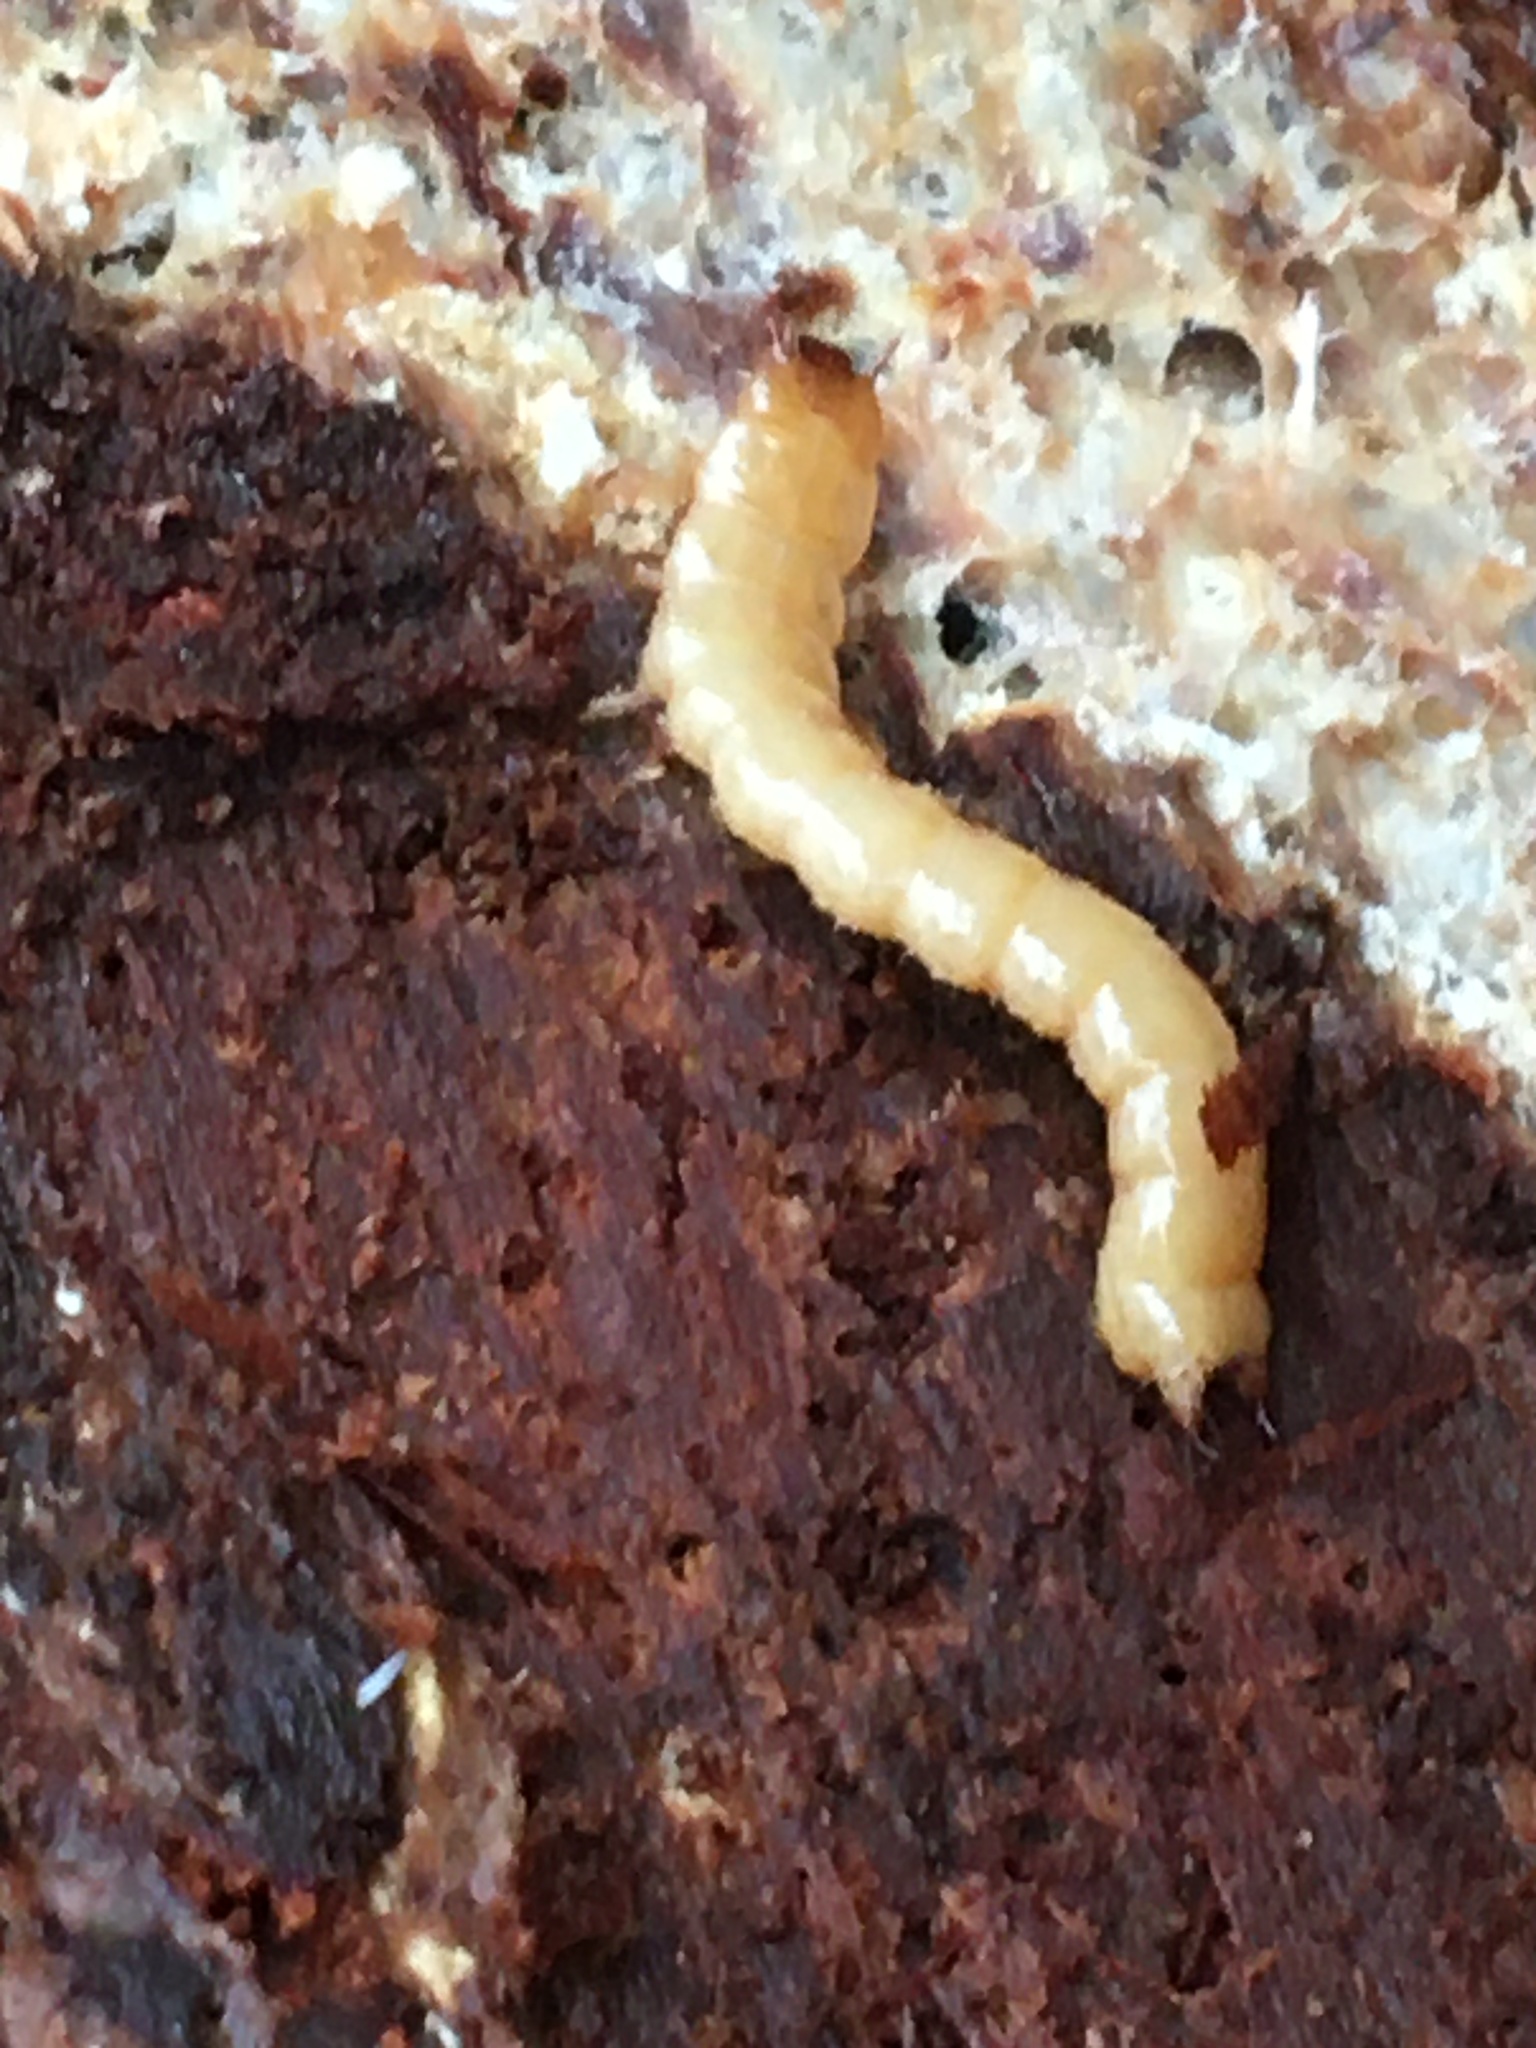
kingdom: Animalia
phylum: Arthropoda
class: Insecta
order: Coleoptera
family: Pythidae
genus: Pytho
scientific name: Pytho americanus
